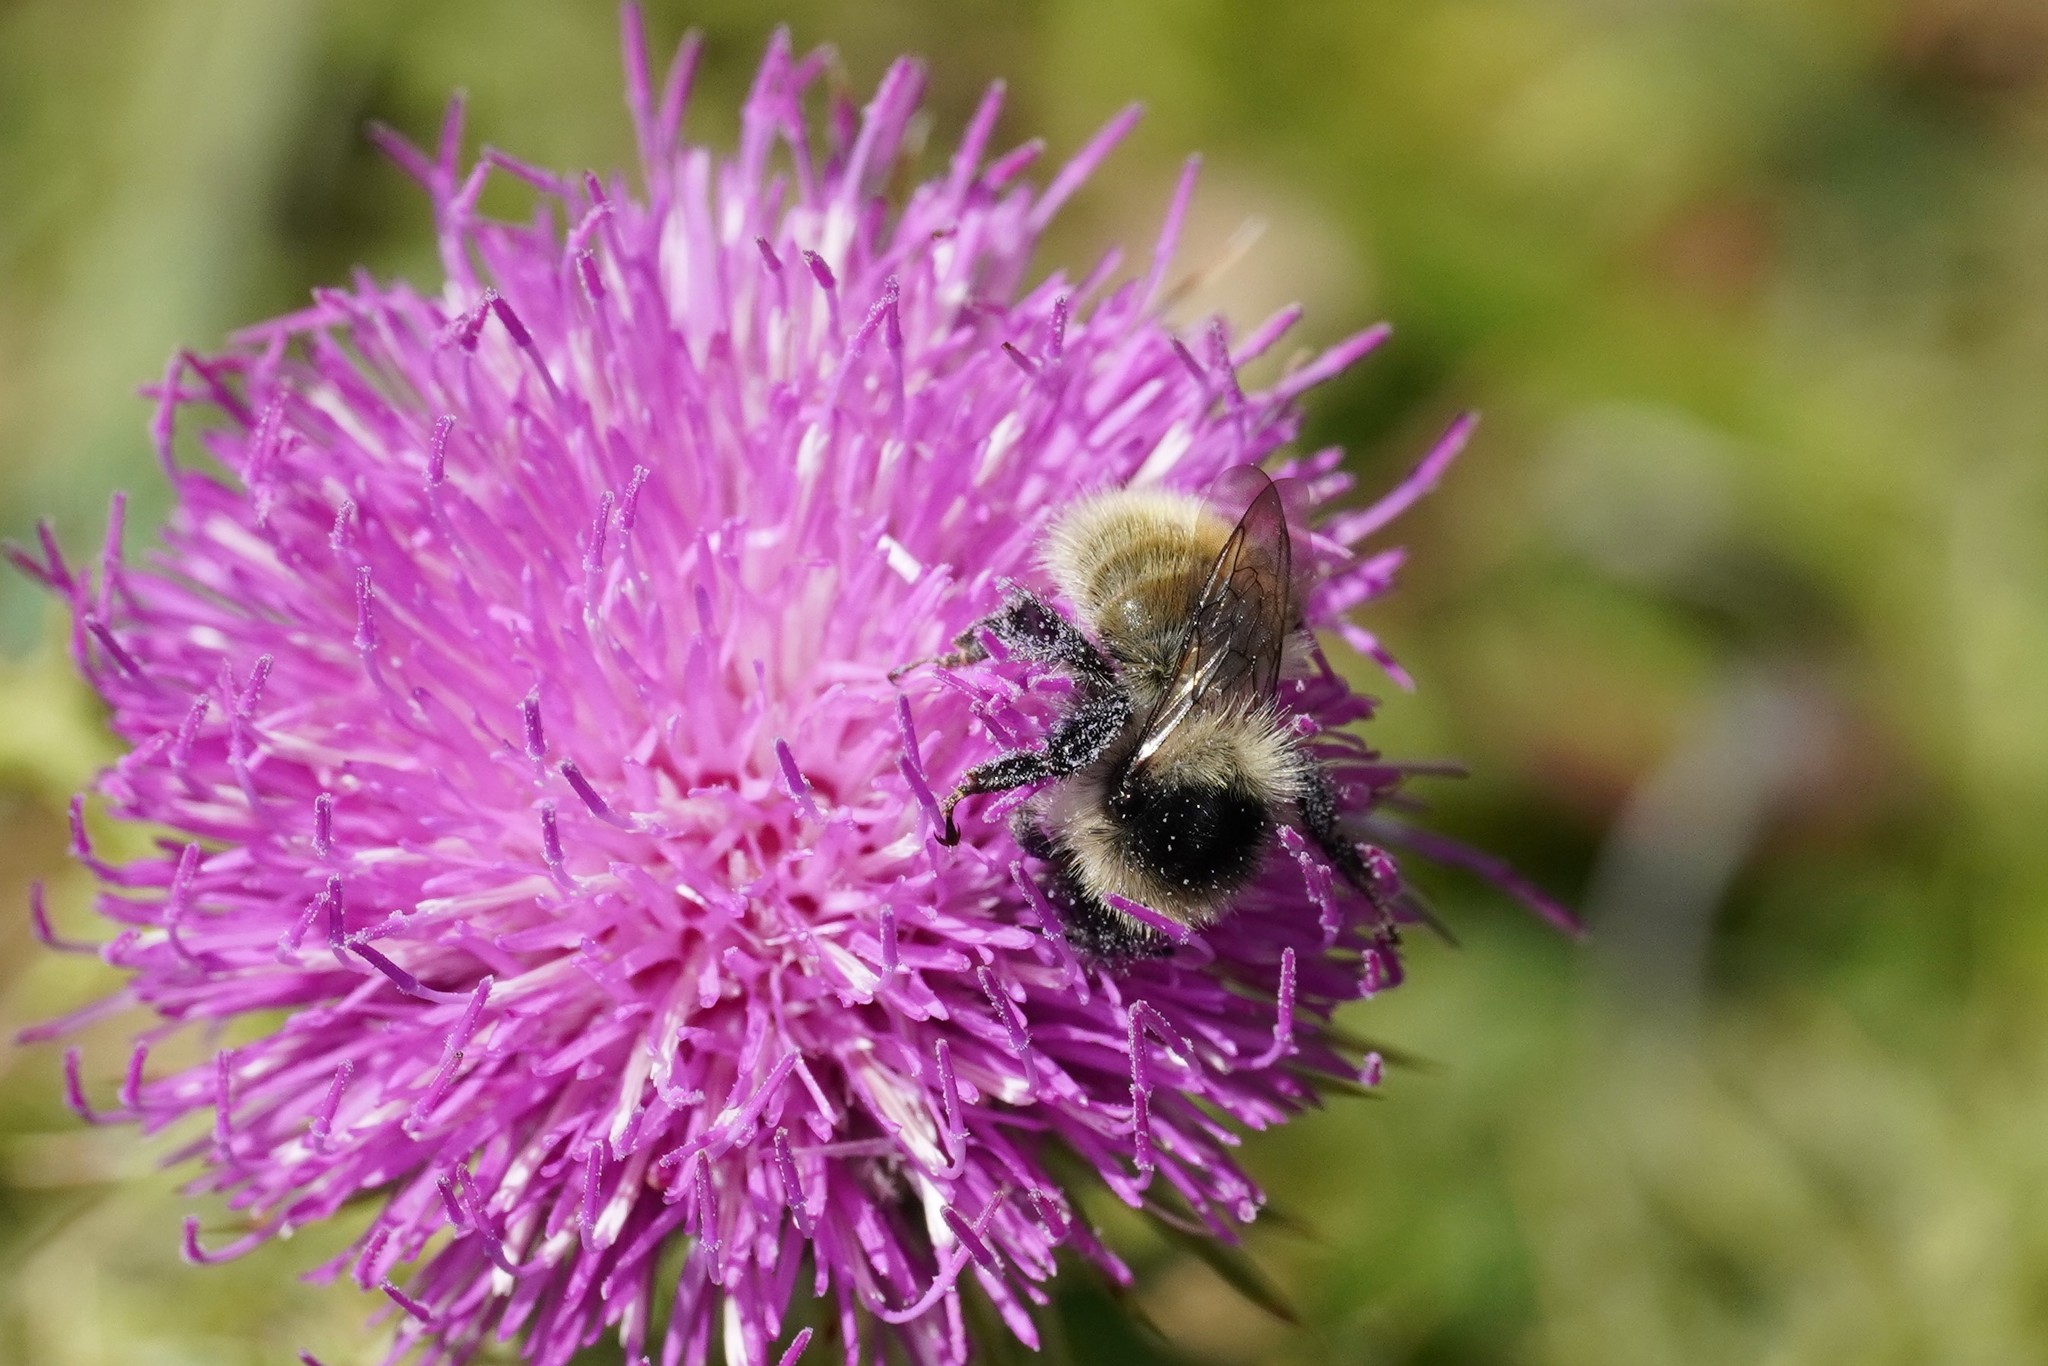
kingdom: Animalia
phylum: Arthropoda
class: Insecta
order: Hymenoptera
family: Apidae
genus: Bombus
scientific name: Bombus mesomelas
